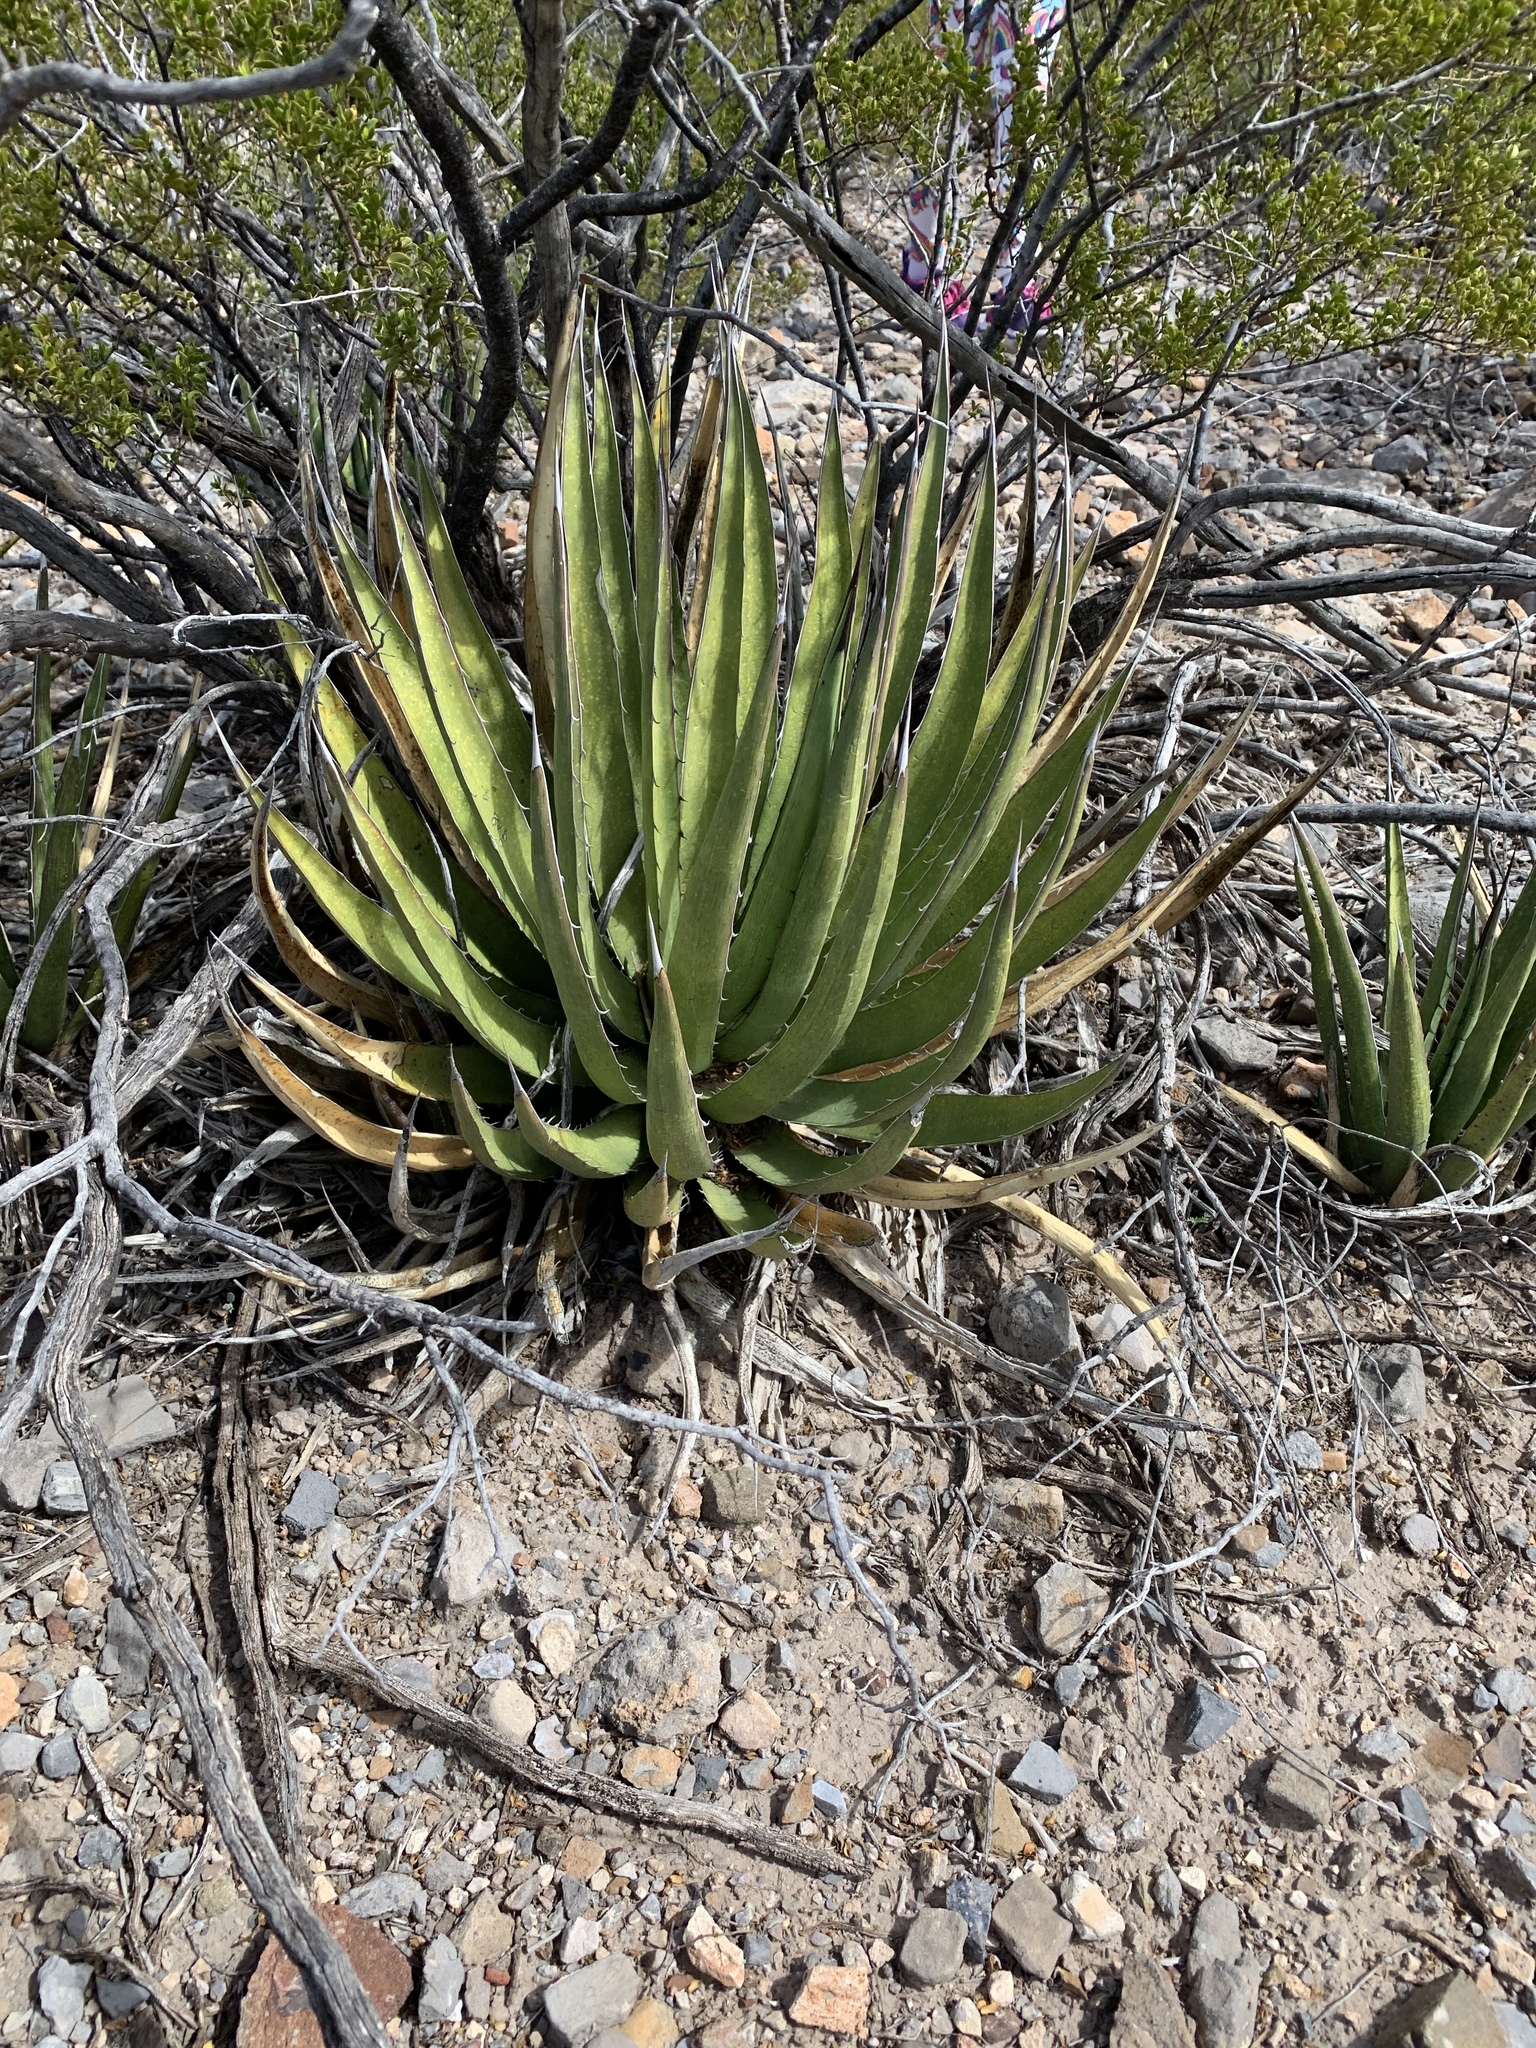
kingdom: Plantae
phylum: Tracheophyta
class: Liliopsida
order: Asparagales
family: Asparagaceae
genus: Agave
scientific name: Agave lechuguilla
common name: Lecheguilla agave
